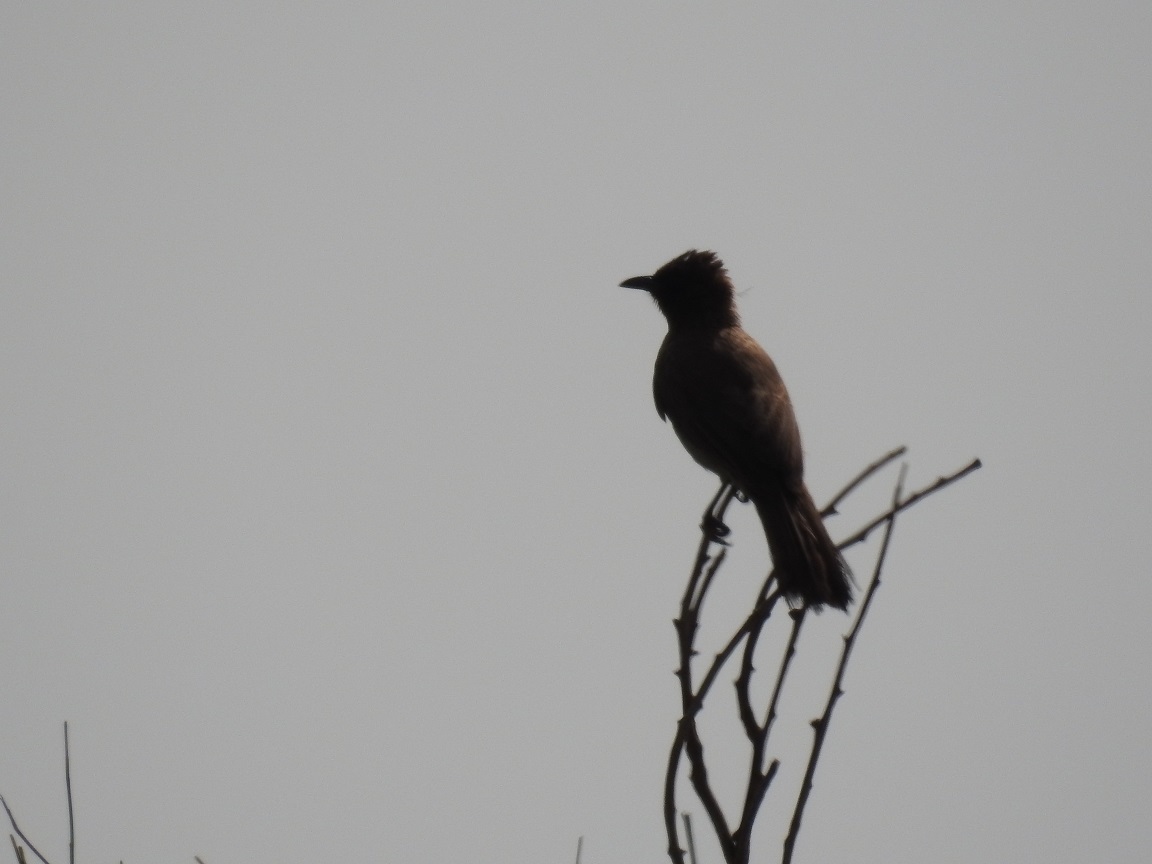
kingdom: Animalia
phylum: Chordata
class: Aves
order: Passeriformes
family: Pycnonotidae
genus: Pycnonotus
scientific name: Pycnonotus barbatus
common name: Common bulbul
